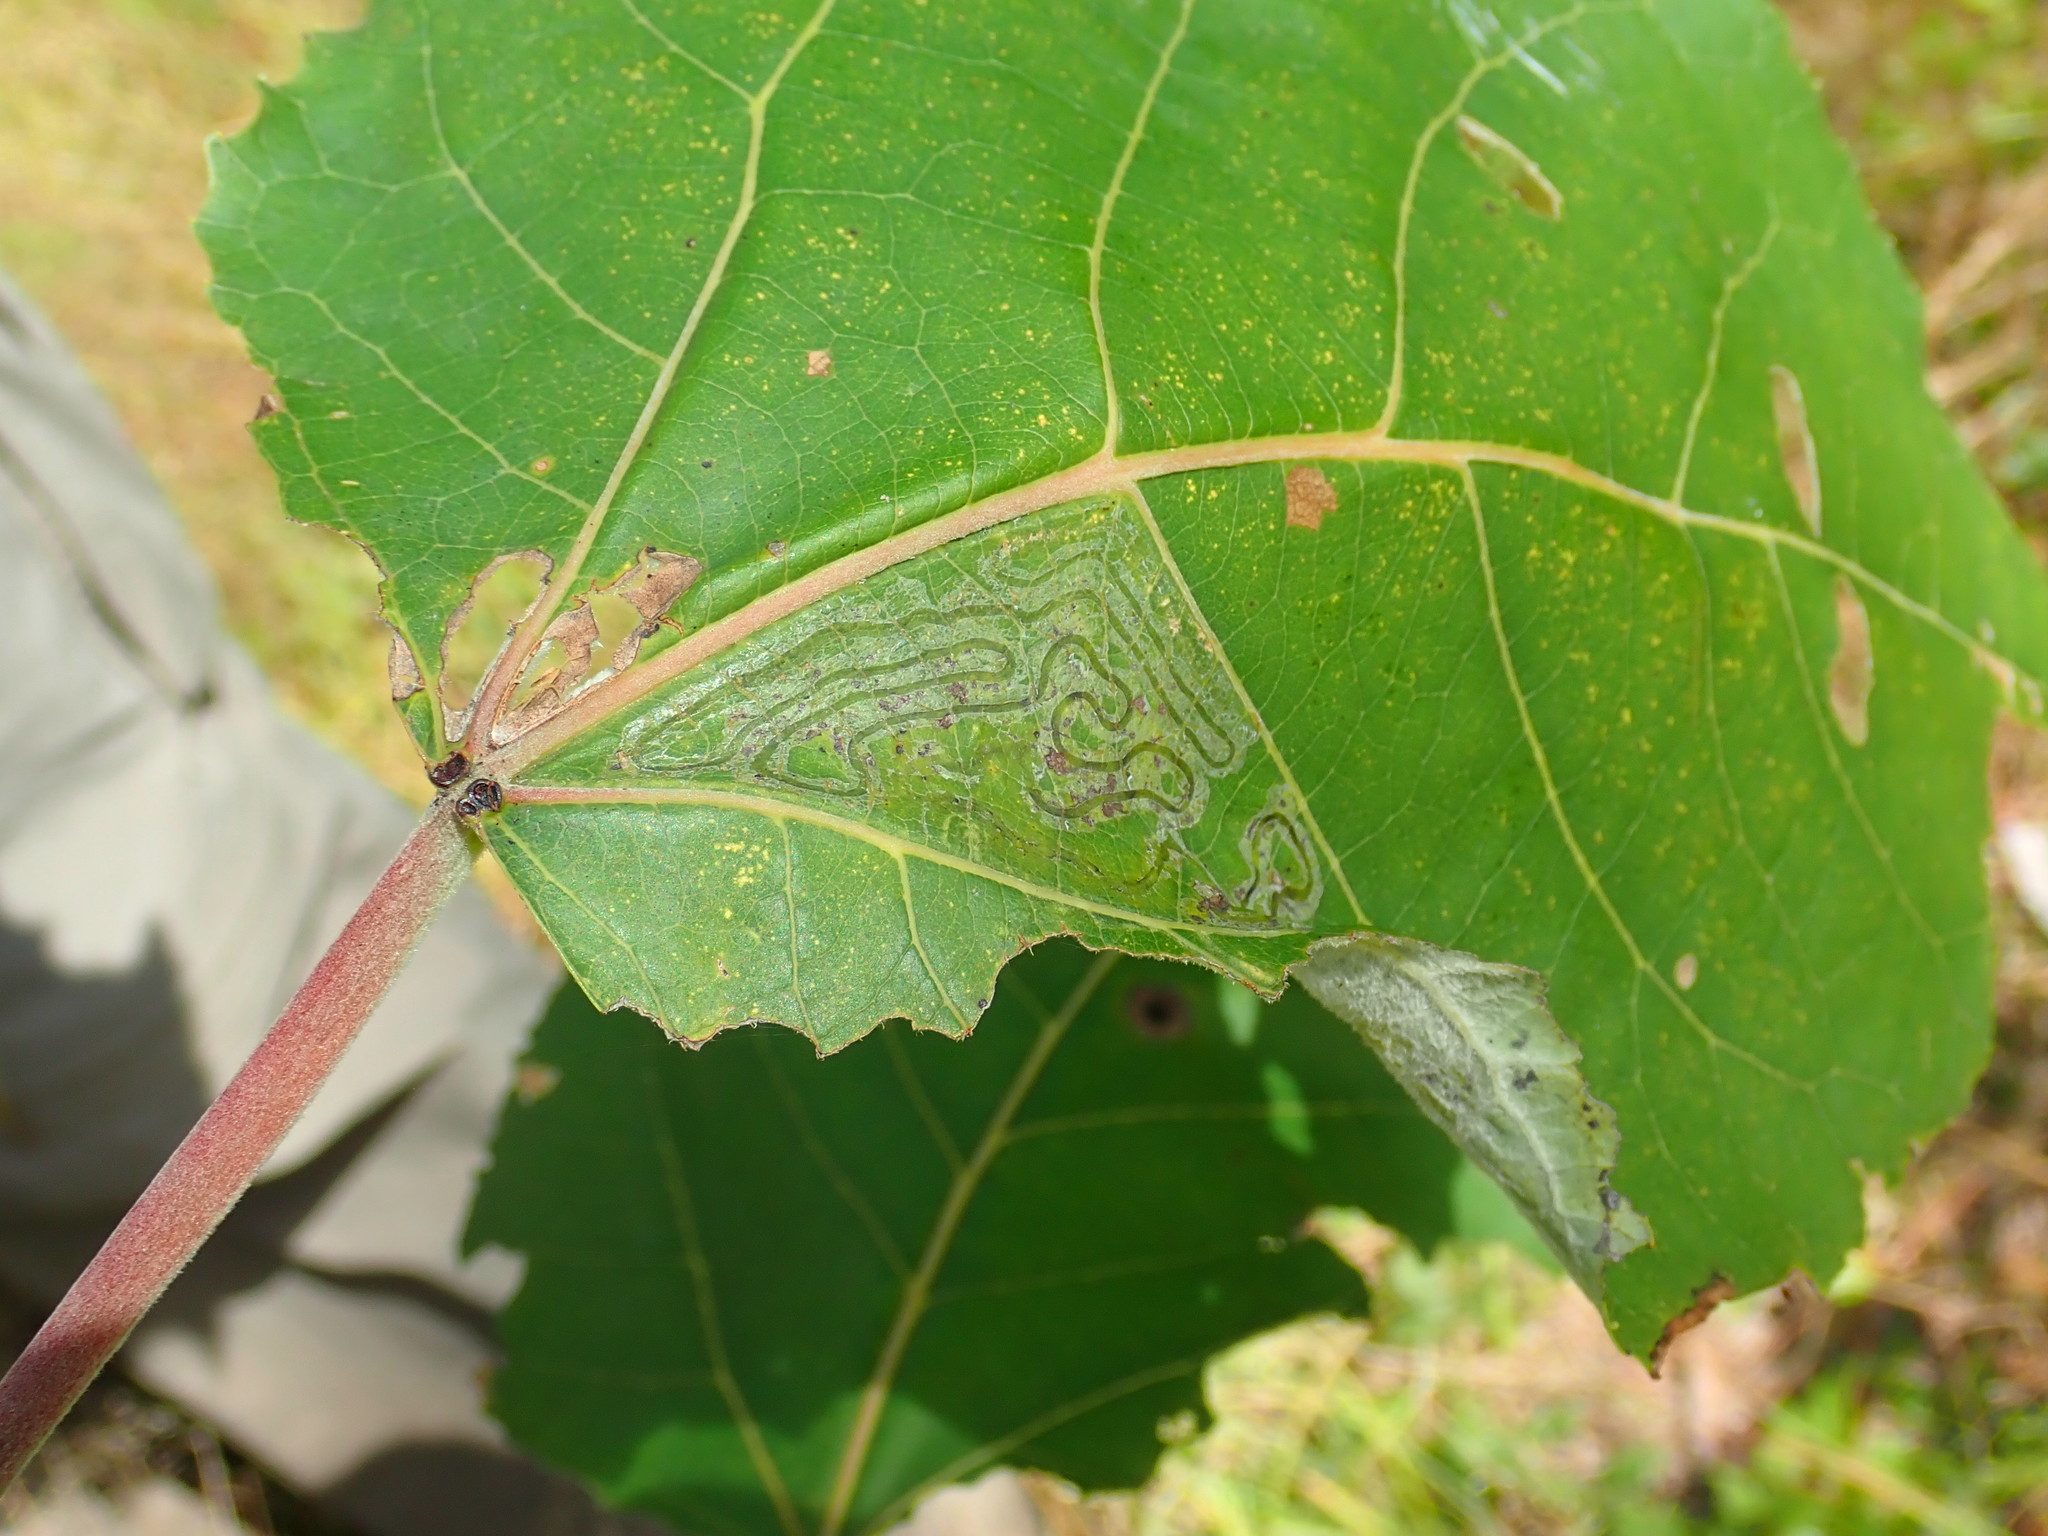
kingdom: Animalia
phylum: Arthropoda
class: Insecta
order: Lepidoptera
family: Gracillariidae
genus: Phyllocnistis
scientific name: Phyllocnistis populiella
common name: Aspen serpentine leafminer moth
